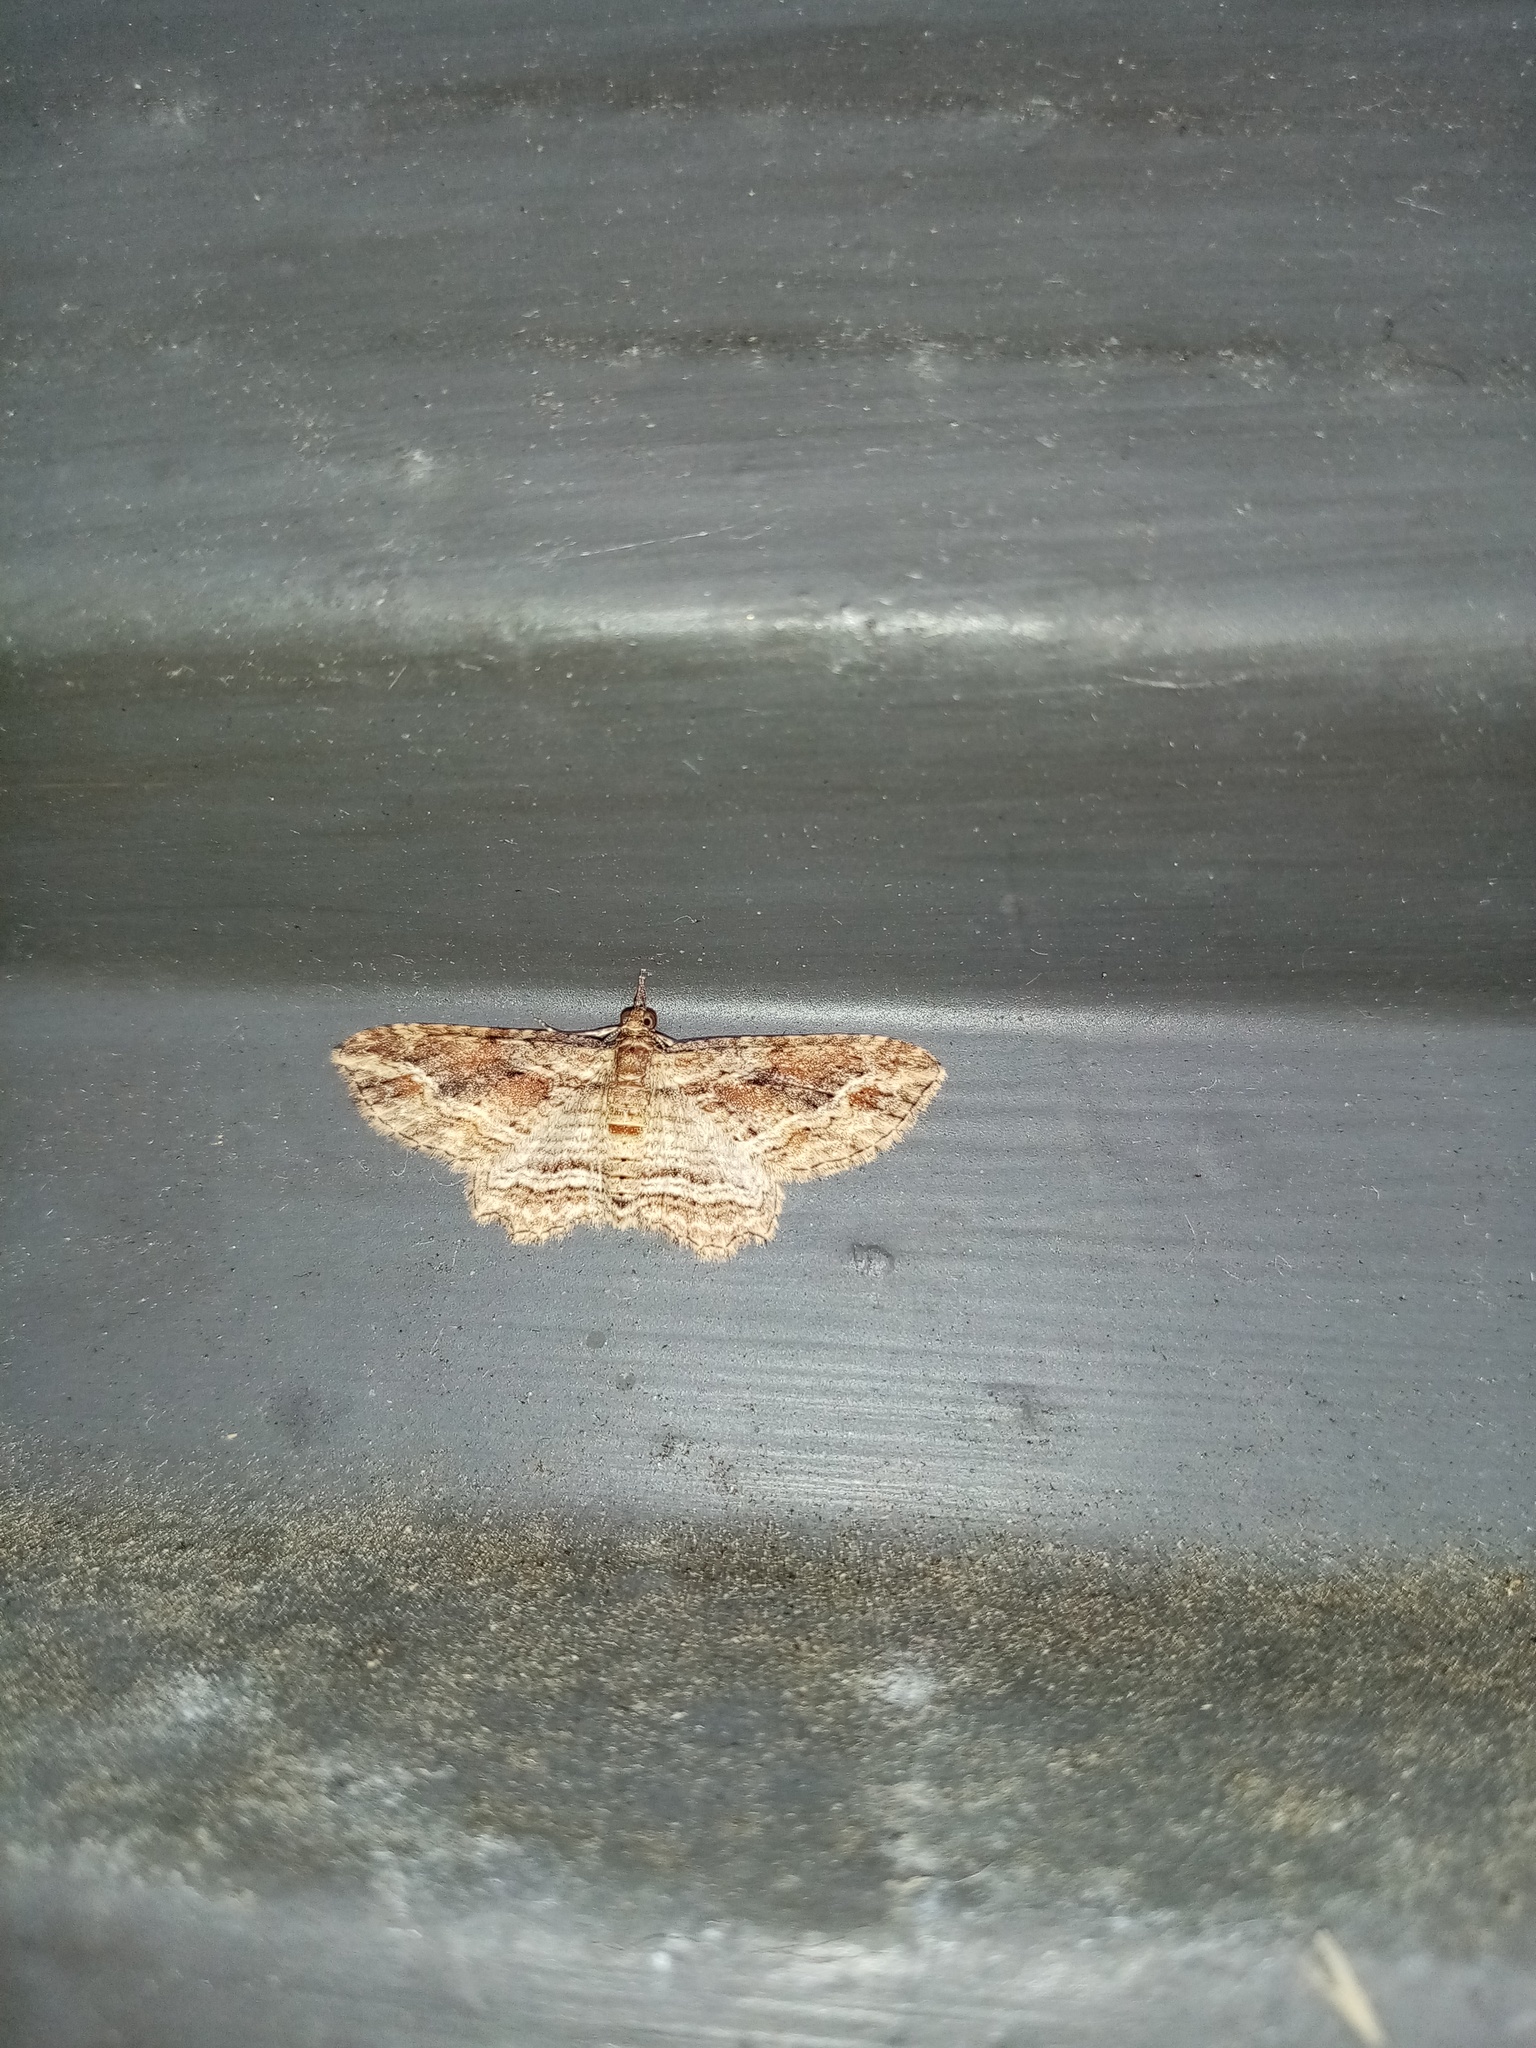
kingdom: Animalia
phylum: Arthropoda
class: Insecta
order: Lepidoptera
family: Geometridae
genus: Chloroclystis
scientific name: Chloroclystis filata
